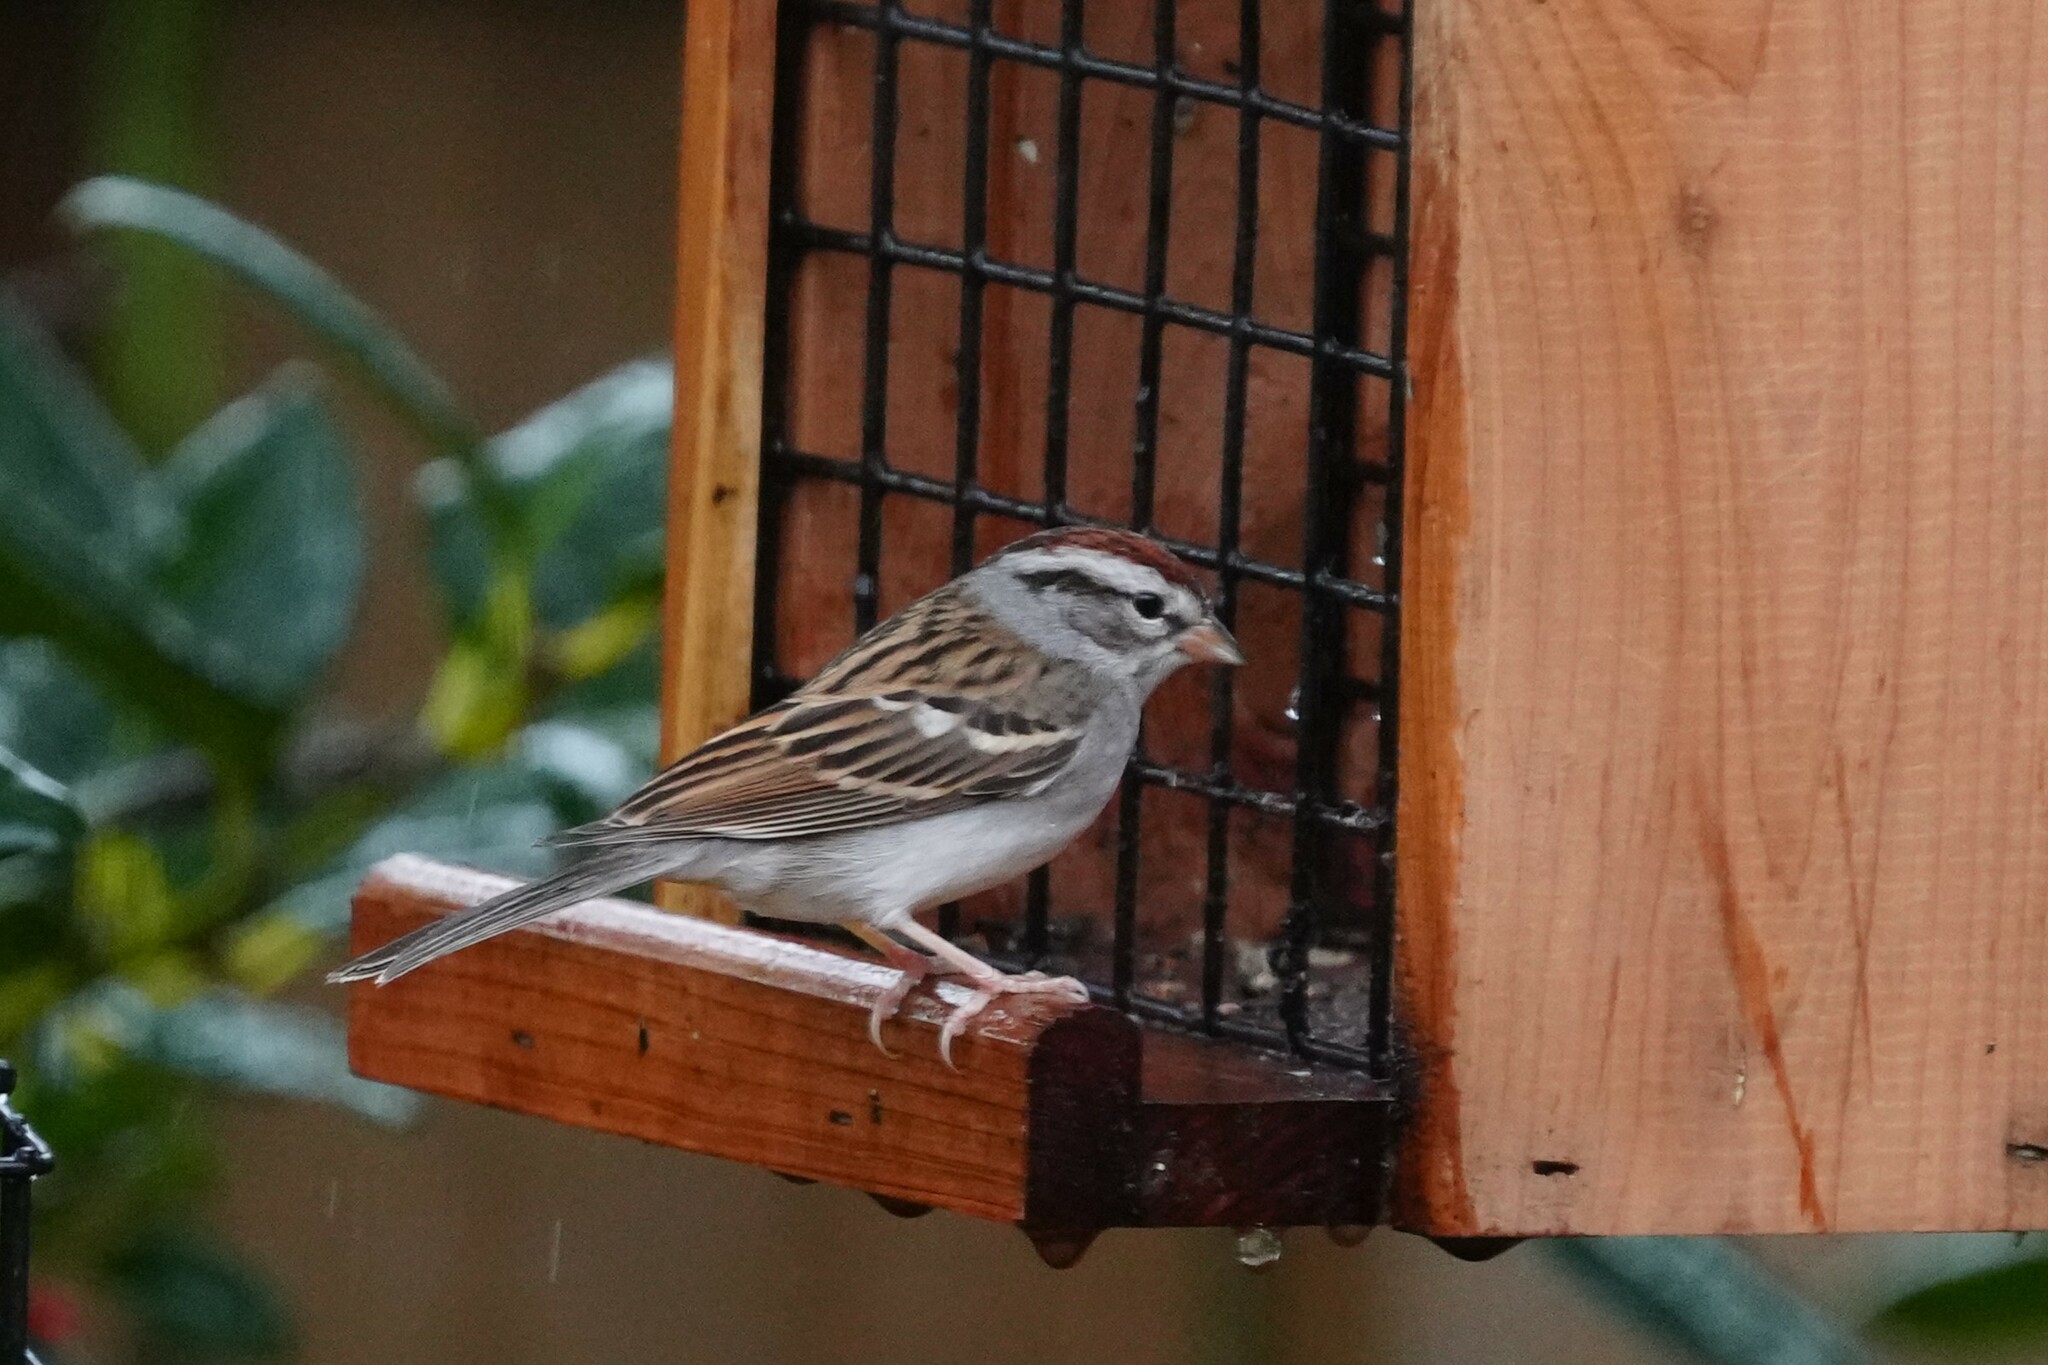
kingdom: Animalia
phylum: Chordata
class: Aves
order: Passeriformes
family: Passerellidae
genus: Spizella
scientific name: Spizella passerina
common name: Chipping sparrow
